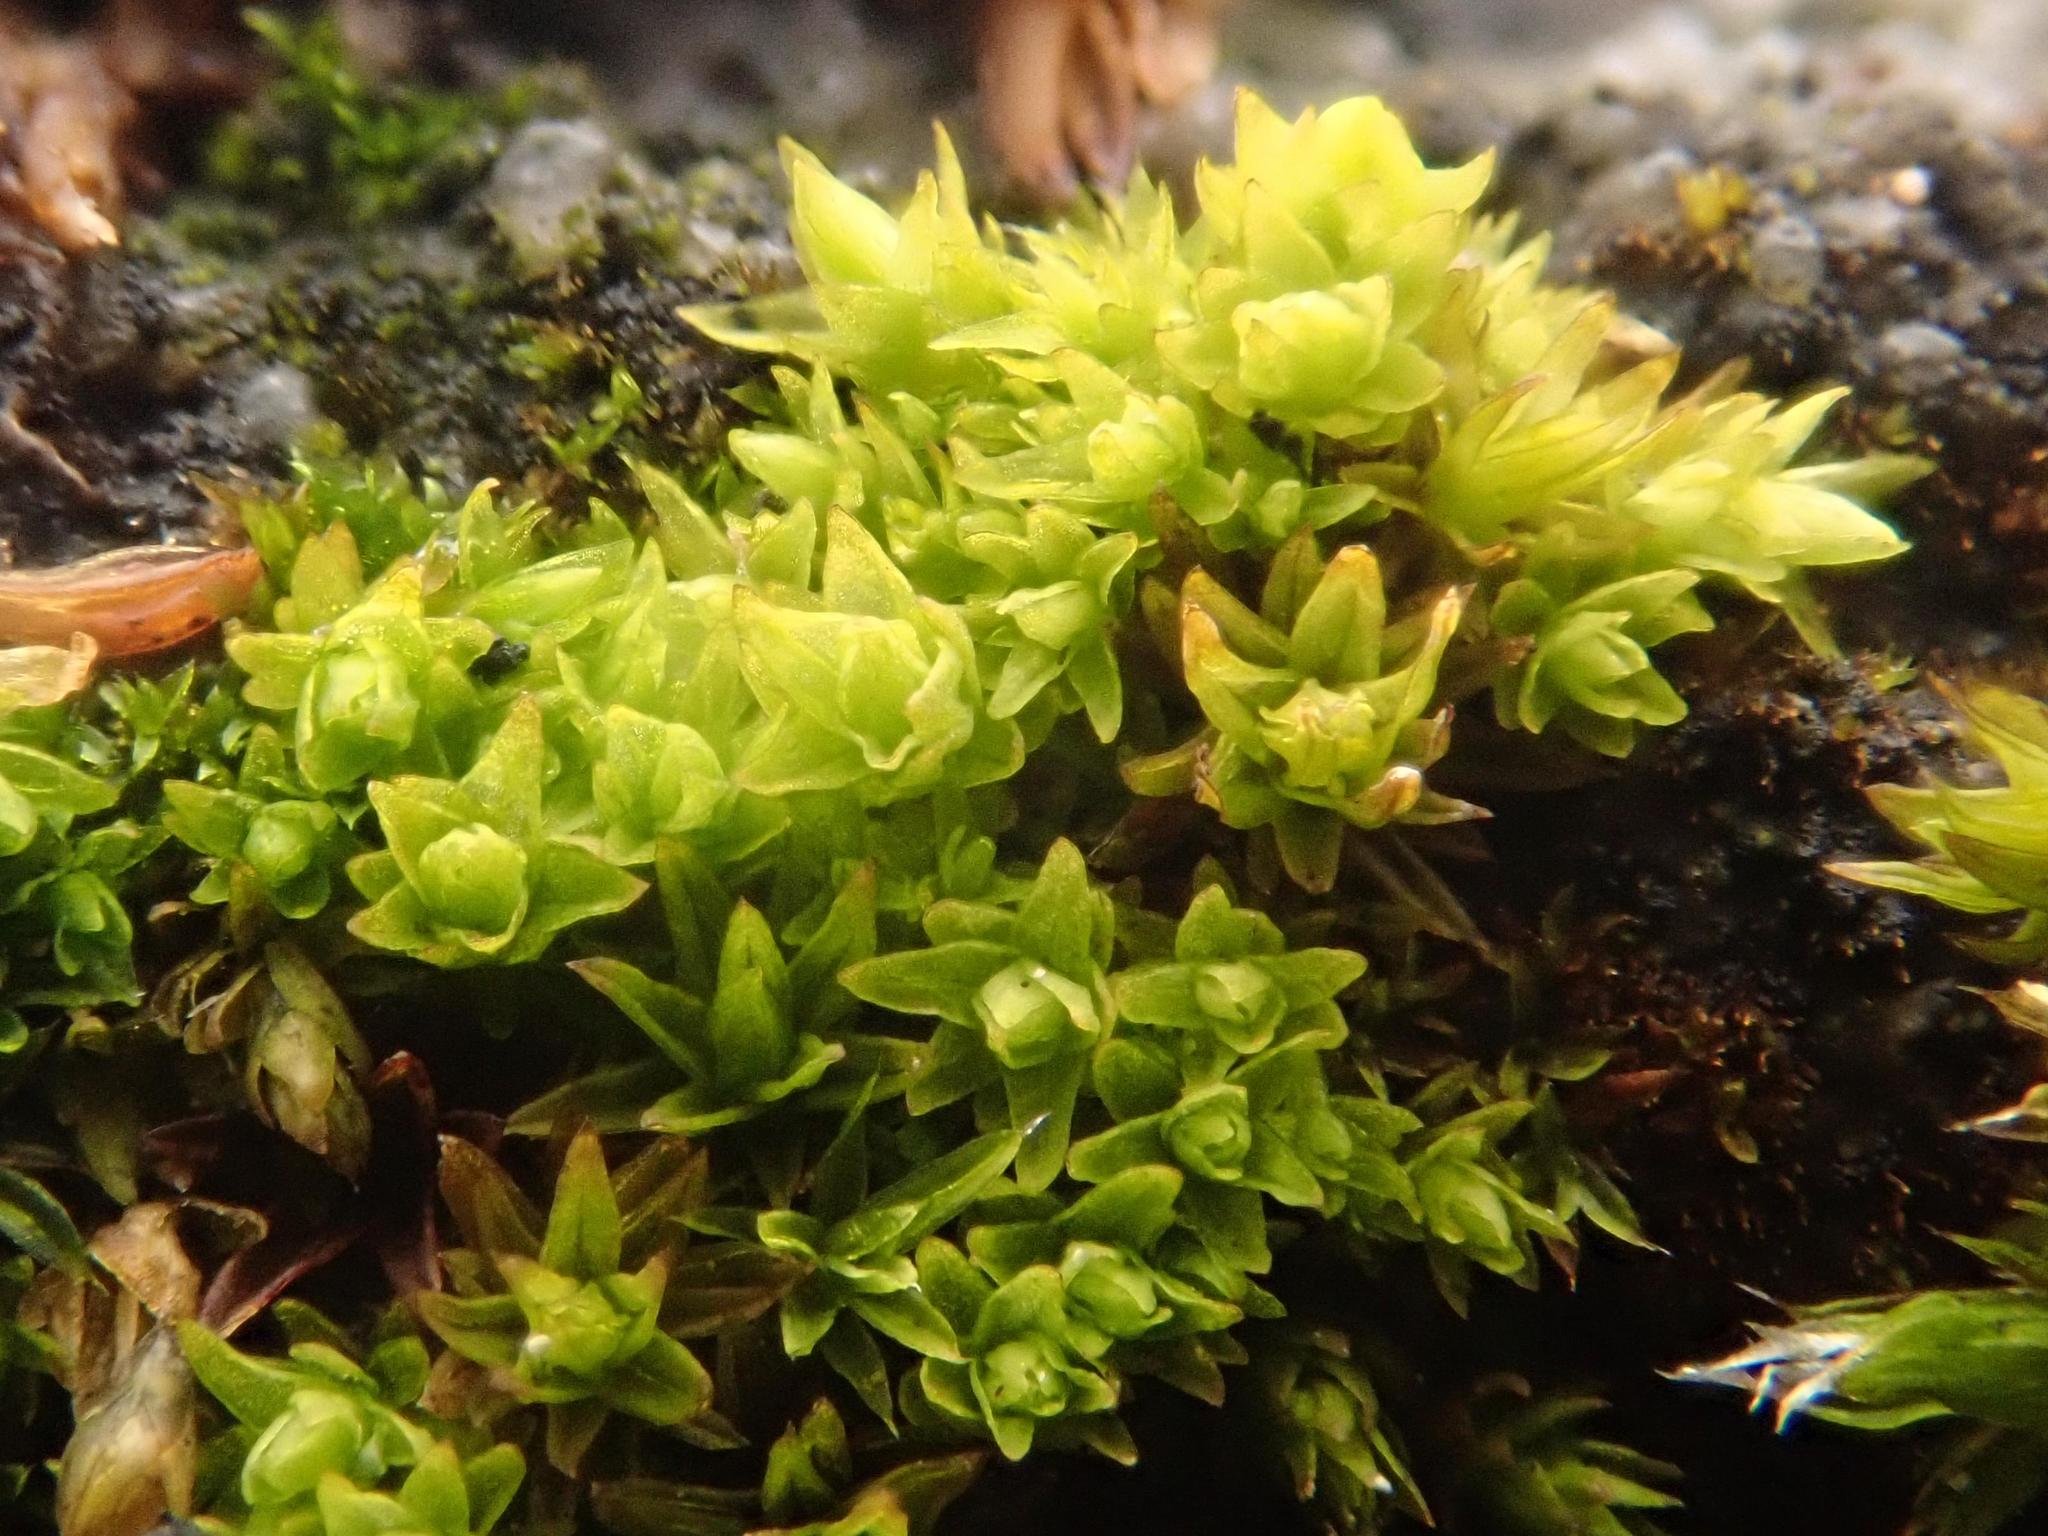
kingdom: Plantae
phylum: Bryophyta
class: Bryopsida
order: Orthotrichales
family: Orthotrichaceae
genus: Nyholmiella
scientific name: Nyholmiella obtusifolia
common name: Blunt-leaved bristle-moss
